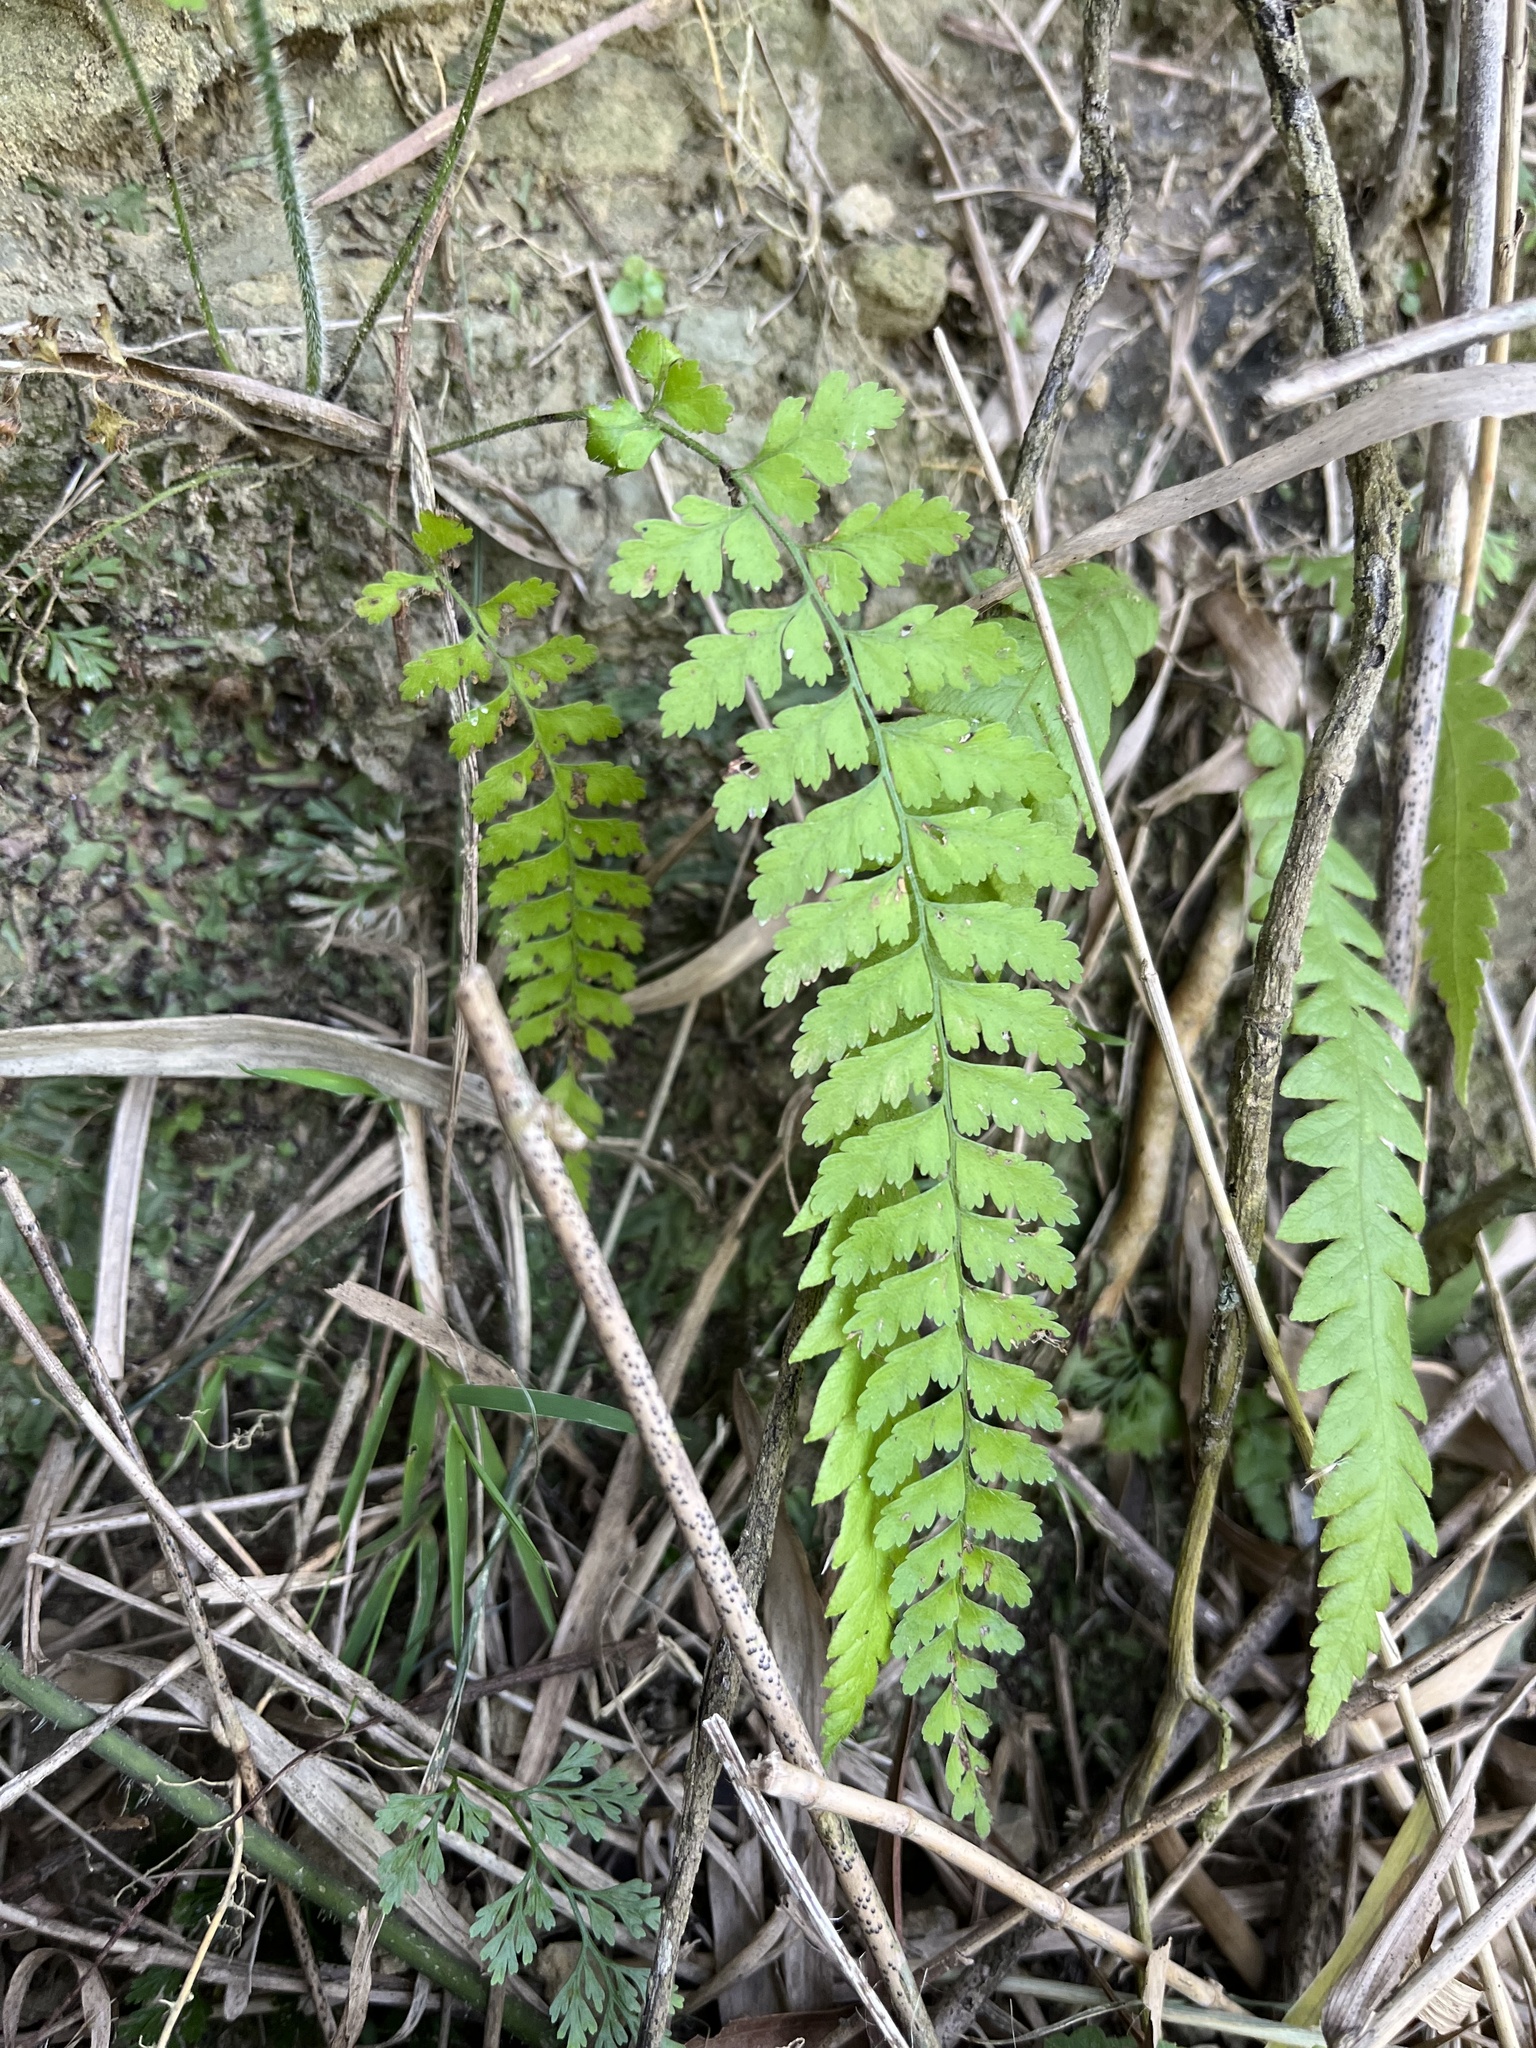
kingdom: Plantae
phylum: Tracheophyta
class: Polypodiopsida
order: Polypodiales
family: Dennstaedtiaceae
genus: Microlepia
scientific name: Microlepia strigosa
